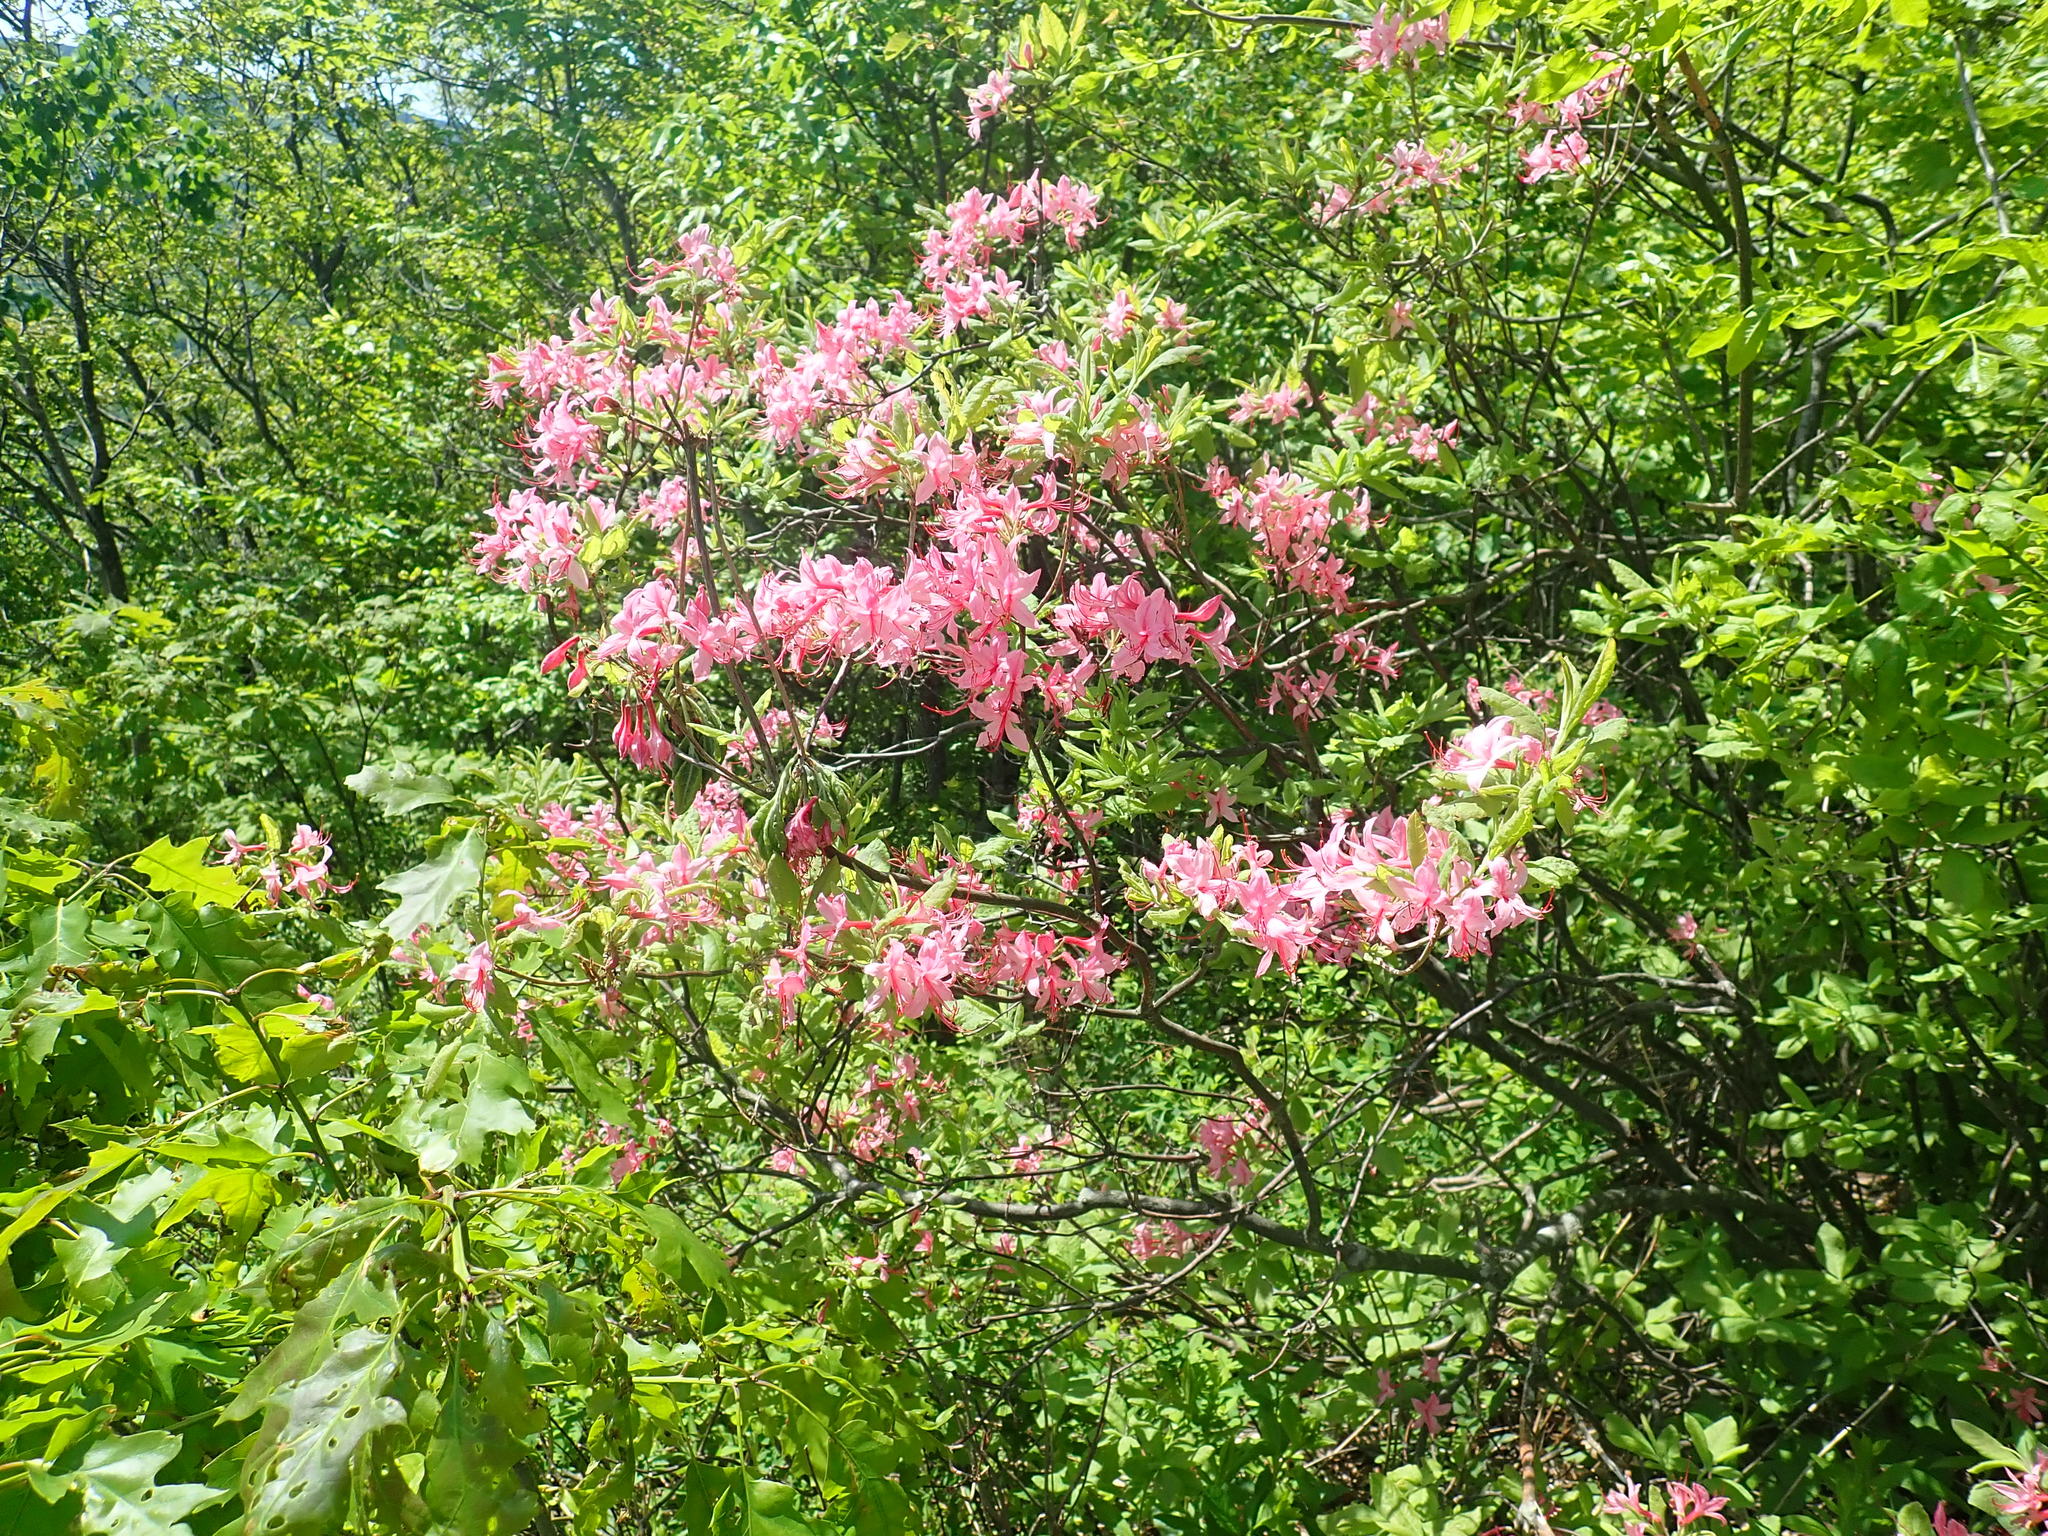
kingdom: Plantae
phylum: Tracheophyta
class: Magnoliopsida
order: Ericales
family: Ericaceae
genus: Rhododendron
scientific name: Rhododendron roseum
